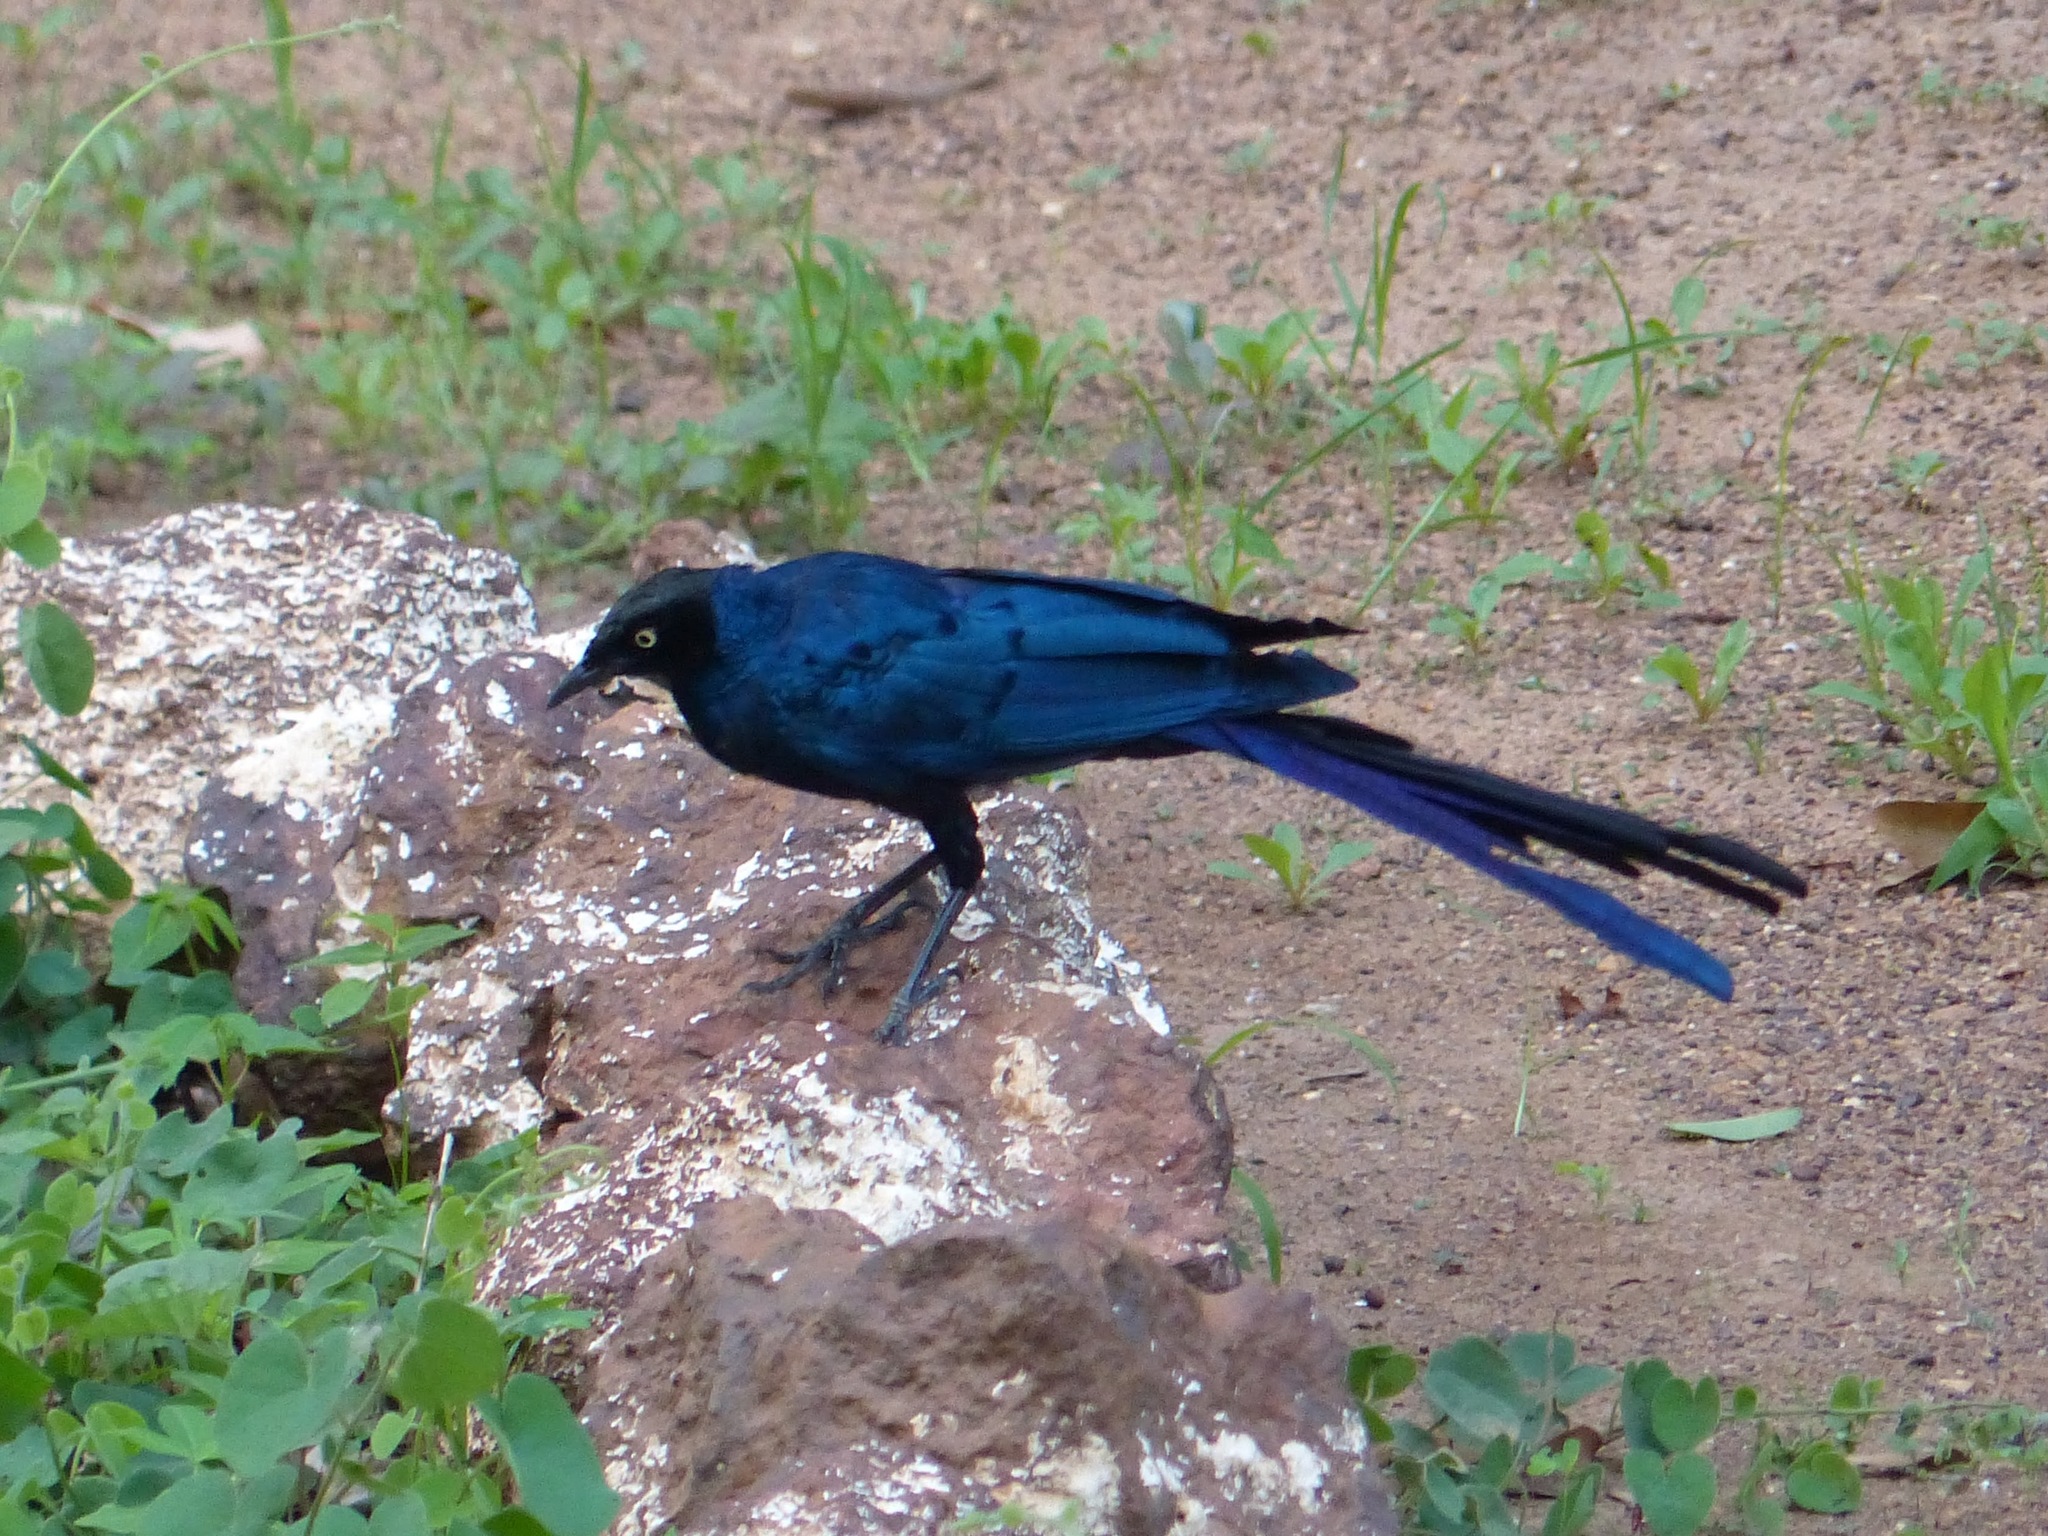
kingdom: Animalia
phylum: Chordata
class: Aves
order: Passeriformes
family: Sturnidae
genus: Lamprotornis
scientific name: Lamprotornis caudatus
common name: Long-tailed glossy starling
